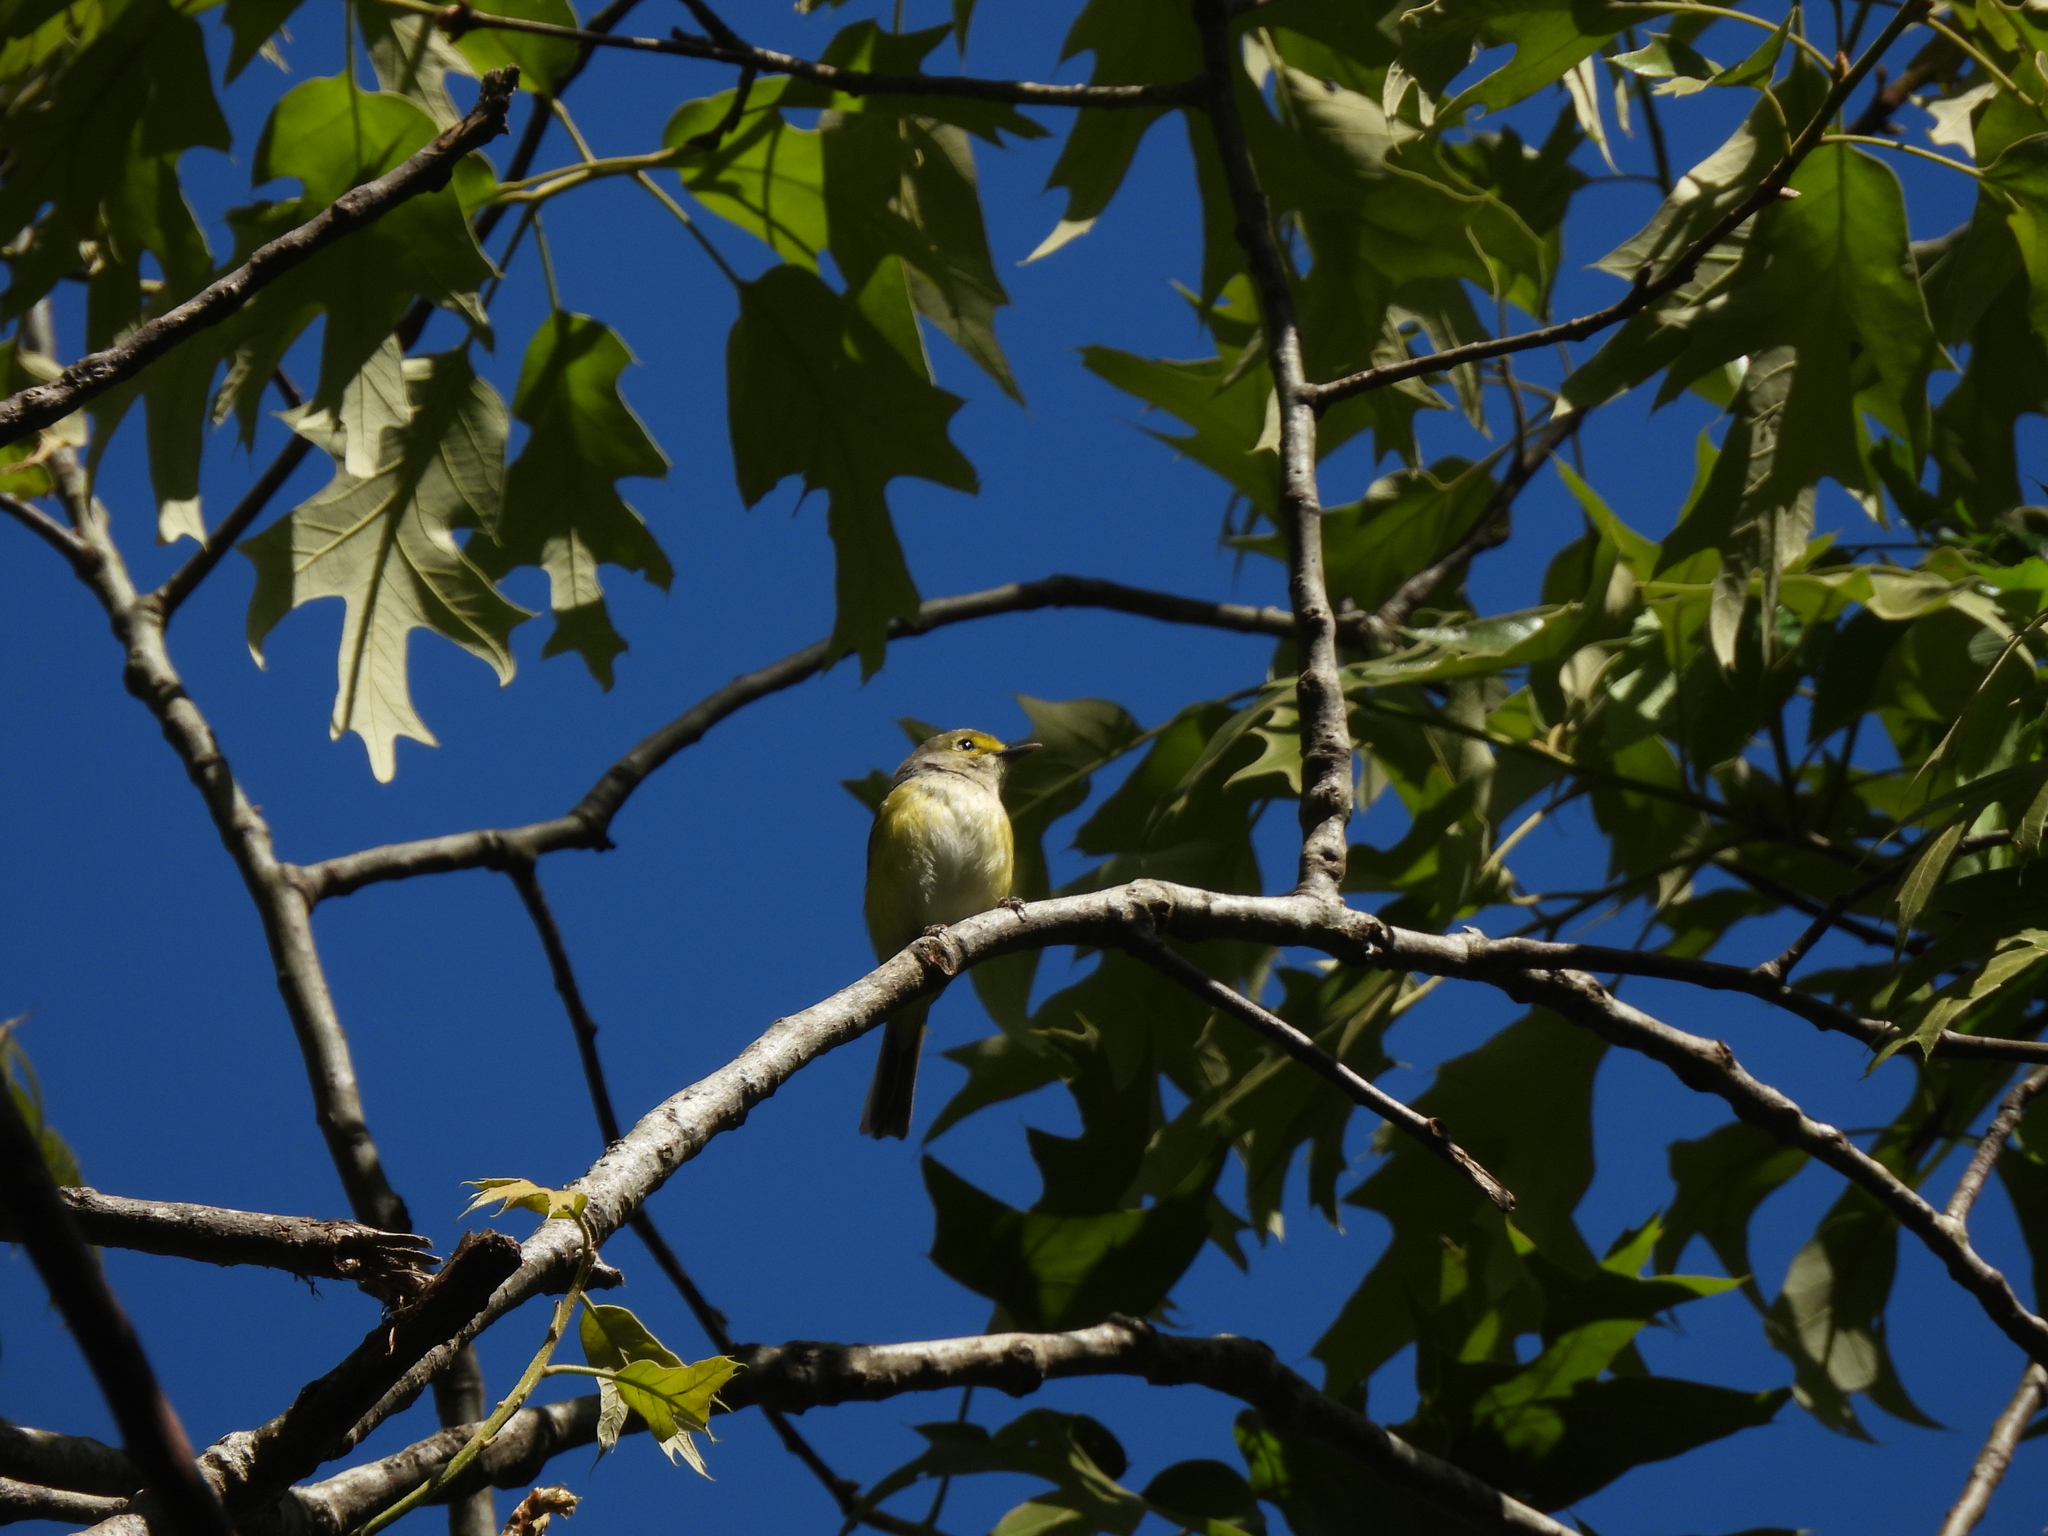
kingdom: Animalia
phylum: Chordata
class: Aves
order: Passeriformes
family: Vireonidae
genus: Vireo
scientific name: Vireo griseus
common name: White-eyed vireo
